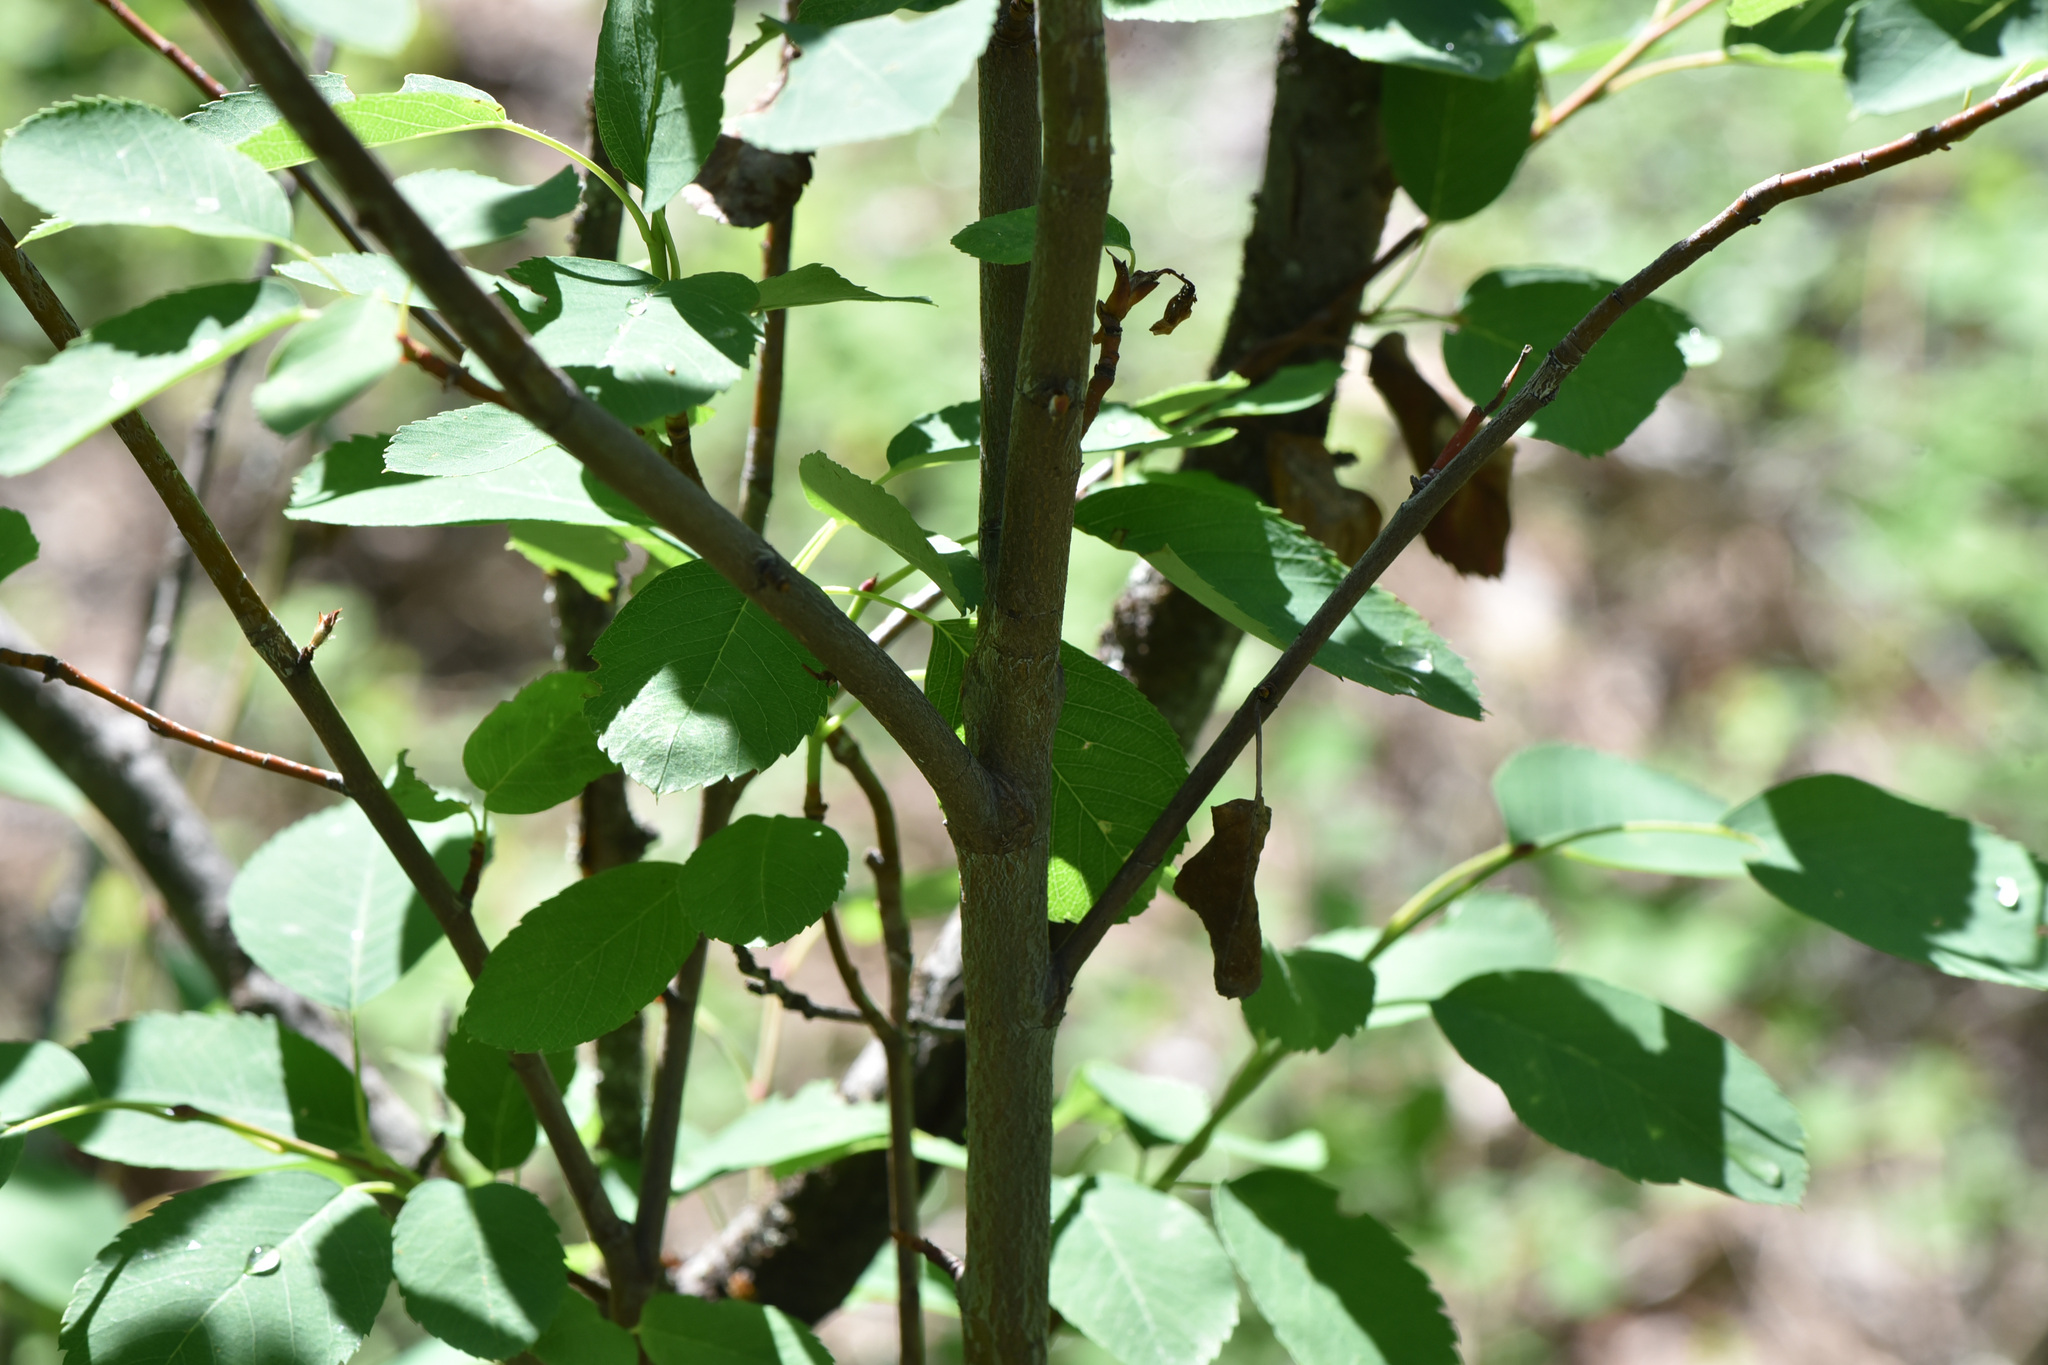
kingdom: Plantae
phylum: Tracheophyta
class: Magnoliopsida
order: Rosales
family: Rosaceae
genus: Amelanchier
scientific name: Amelanchier alnifolia
